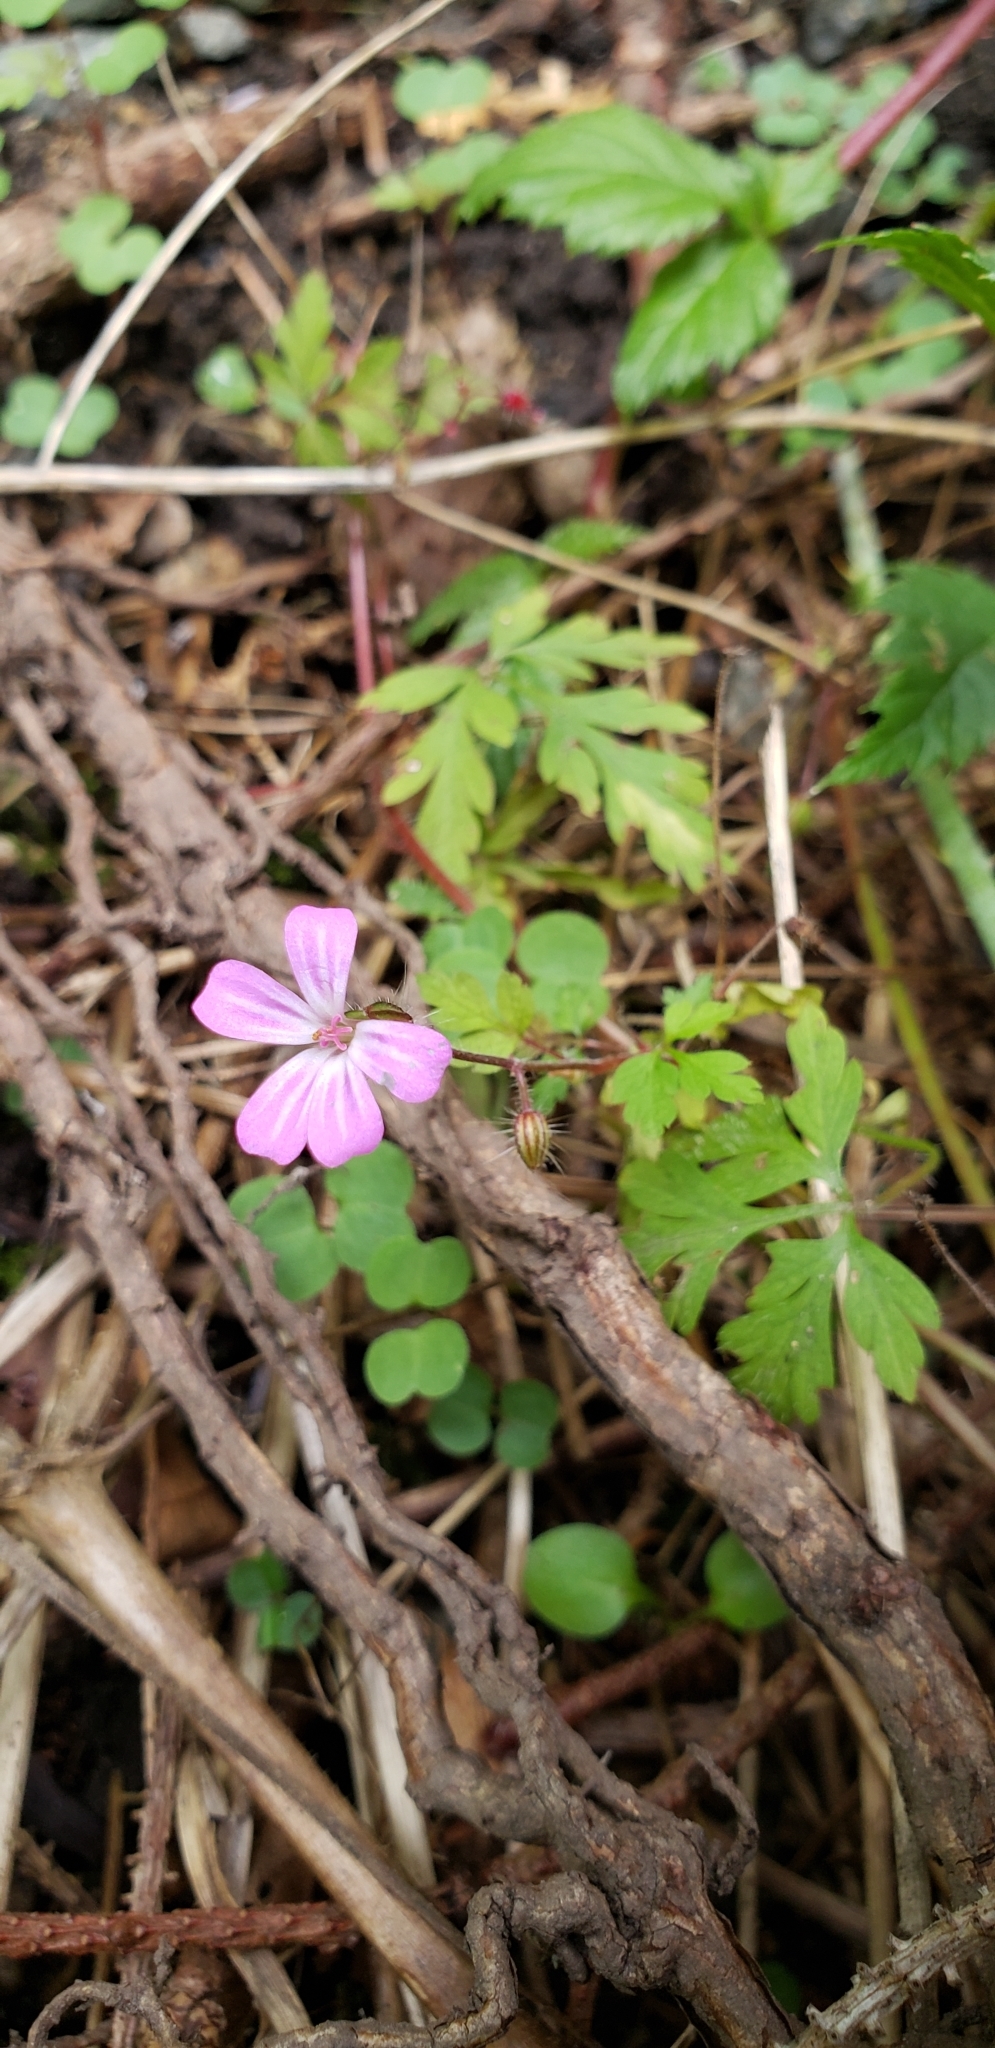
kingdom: Plantae
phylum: Tracheophyta
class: Magnoliopsida
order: Geraniales
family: Geraniaceae
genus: Geranium
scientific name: Geranium robertianum
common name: Herb-robert
